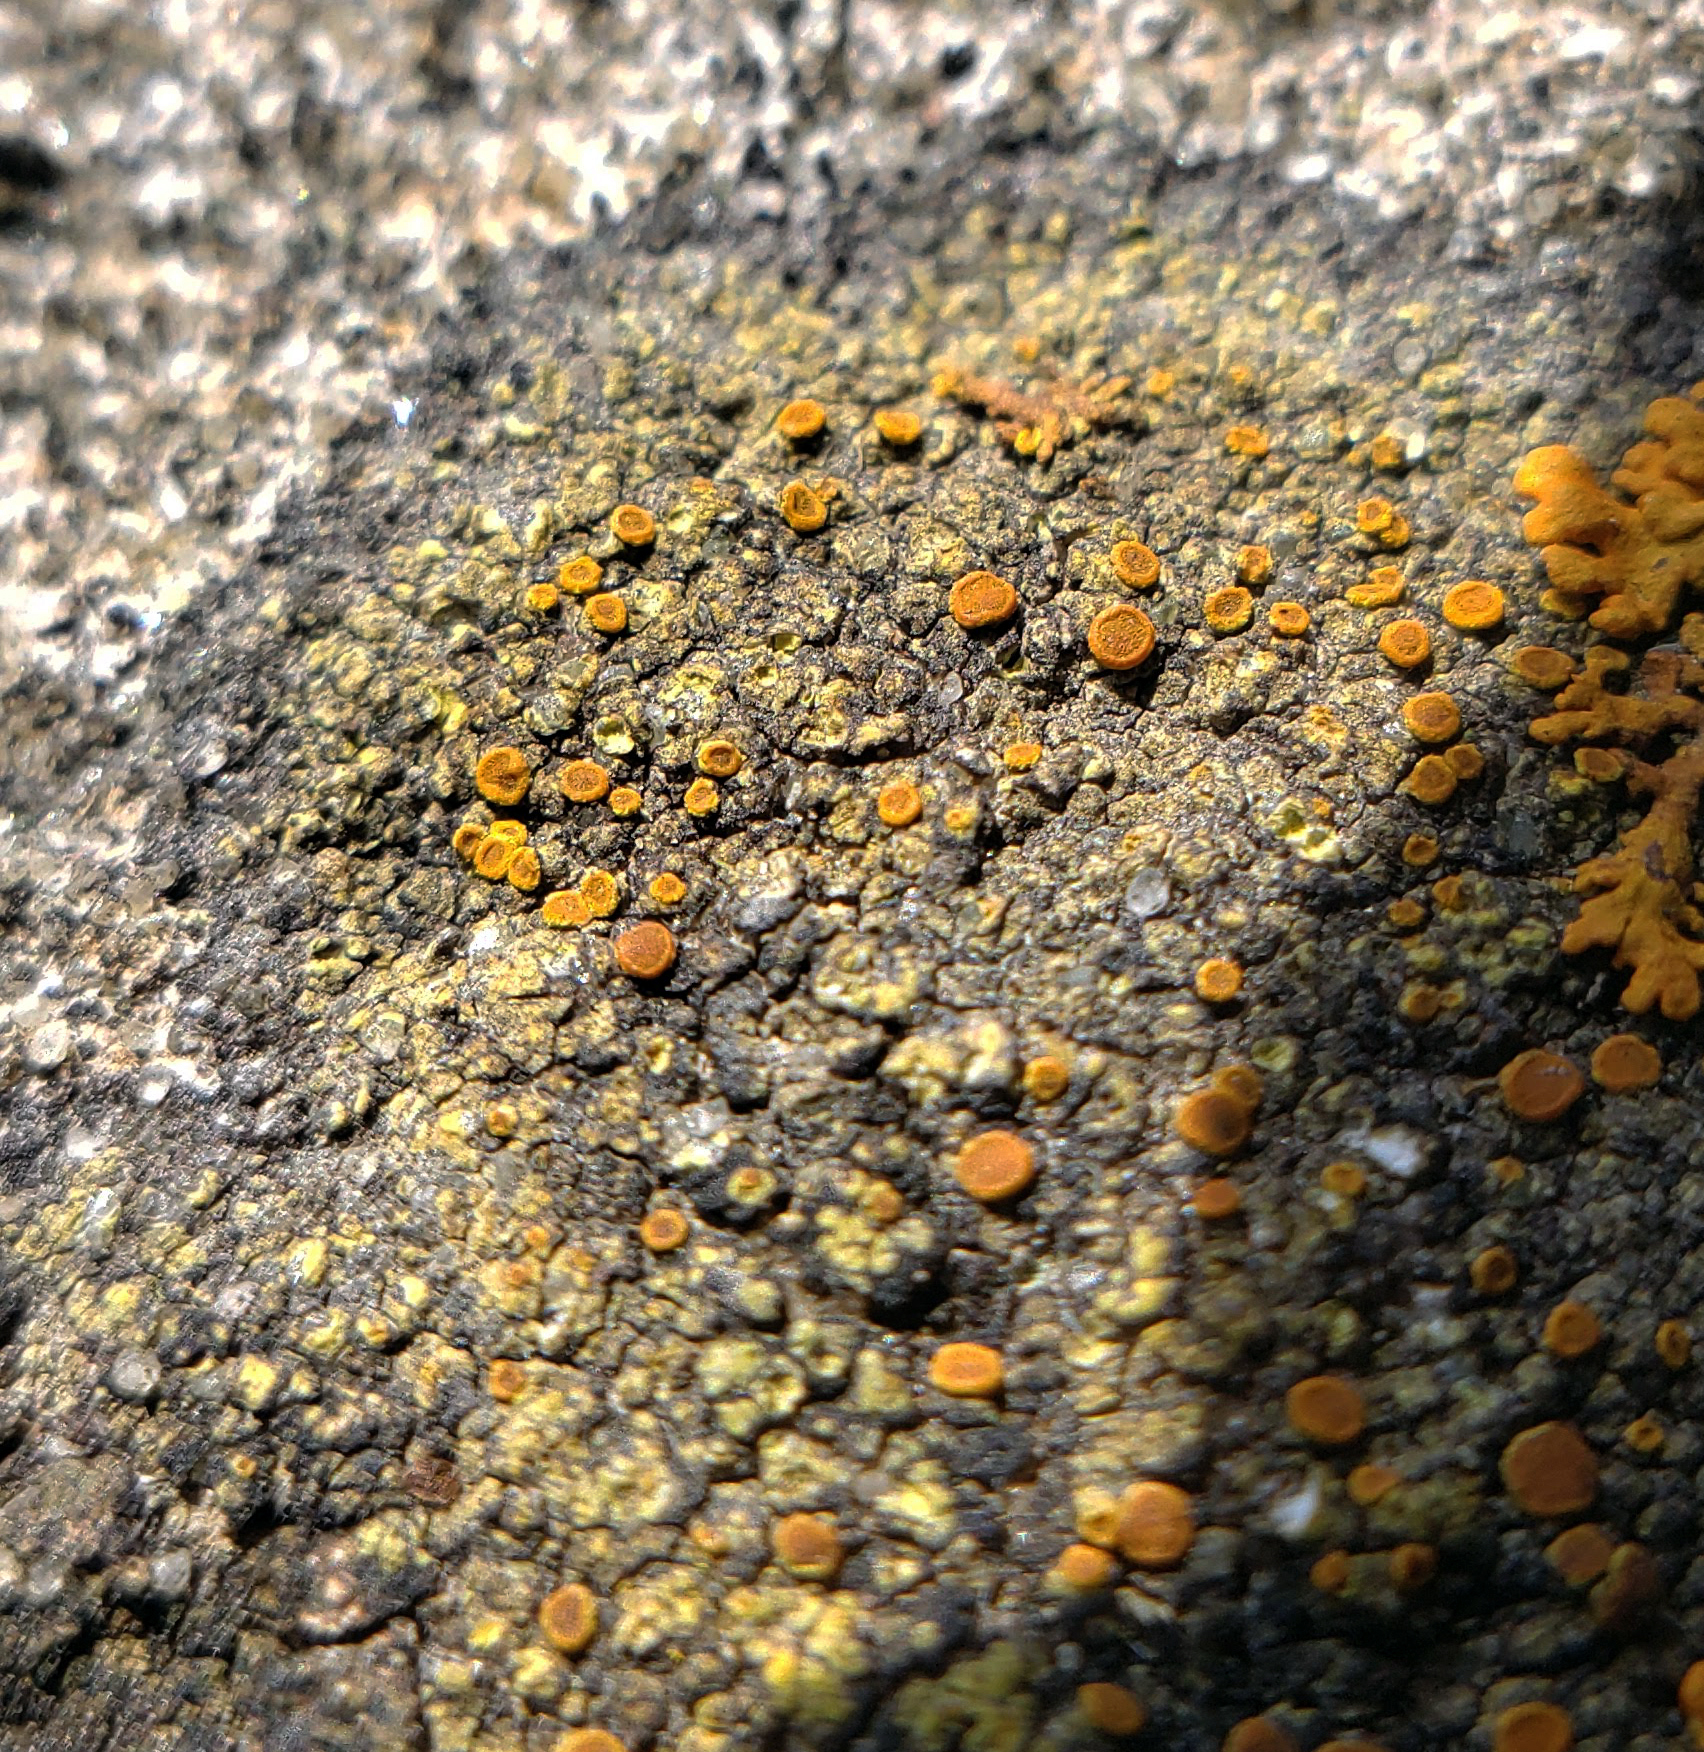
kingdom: Fungi
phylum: Ascomycota
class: Lecanoromycetes
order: Teloschistales
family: Teloschistaceae
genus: Gyalolechia
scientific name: Gyalolechia flavovirescens
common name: Sulphur firedot
